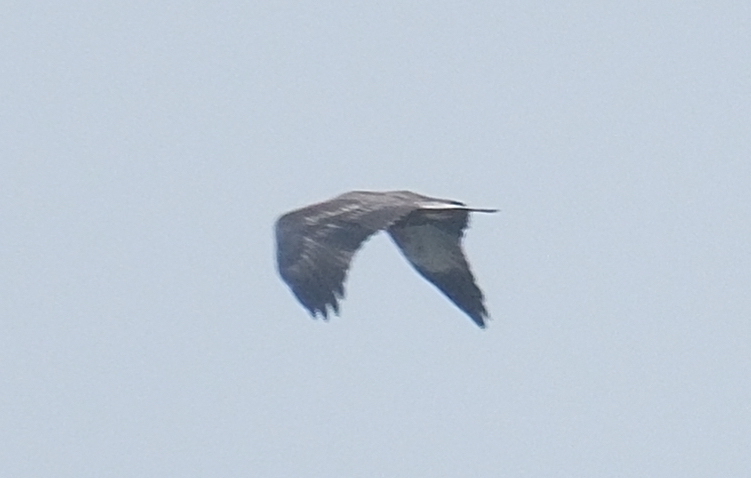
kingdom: Animalia
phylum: Chordata
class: Aves
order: Accipitriformes
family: Accipitridae
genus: Haliaeetus
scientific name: Haliaeetus leucogaster
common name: White-bellied sea eagle
